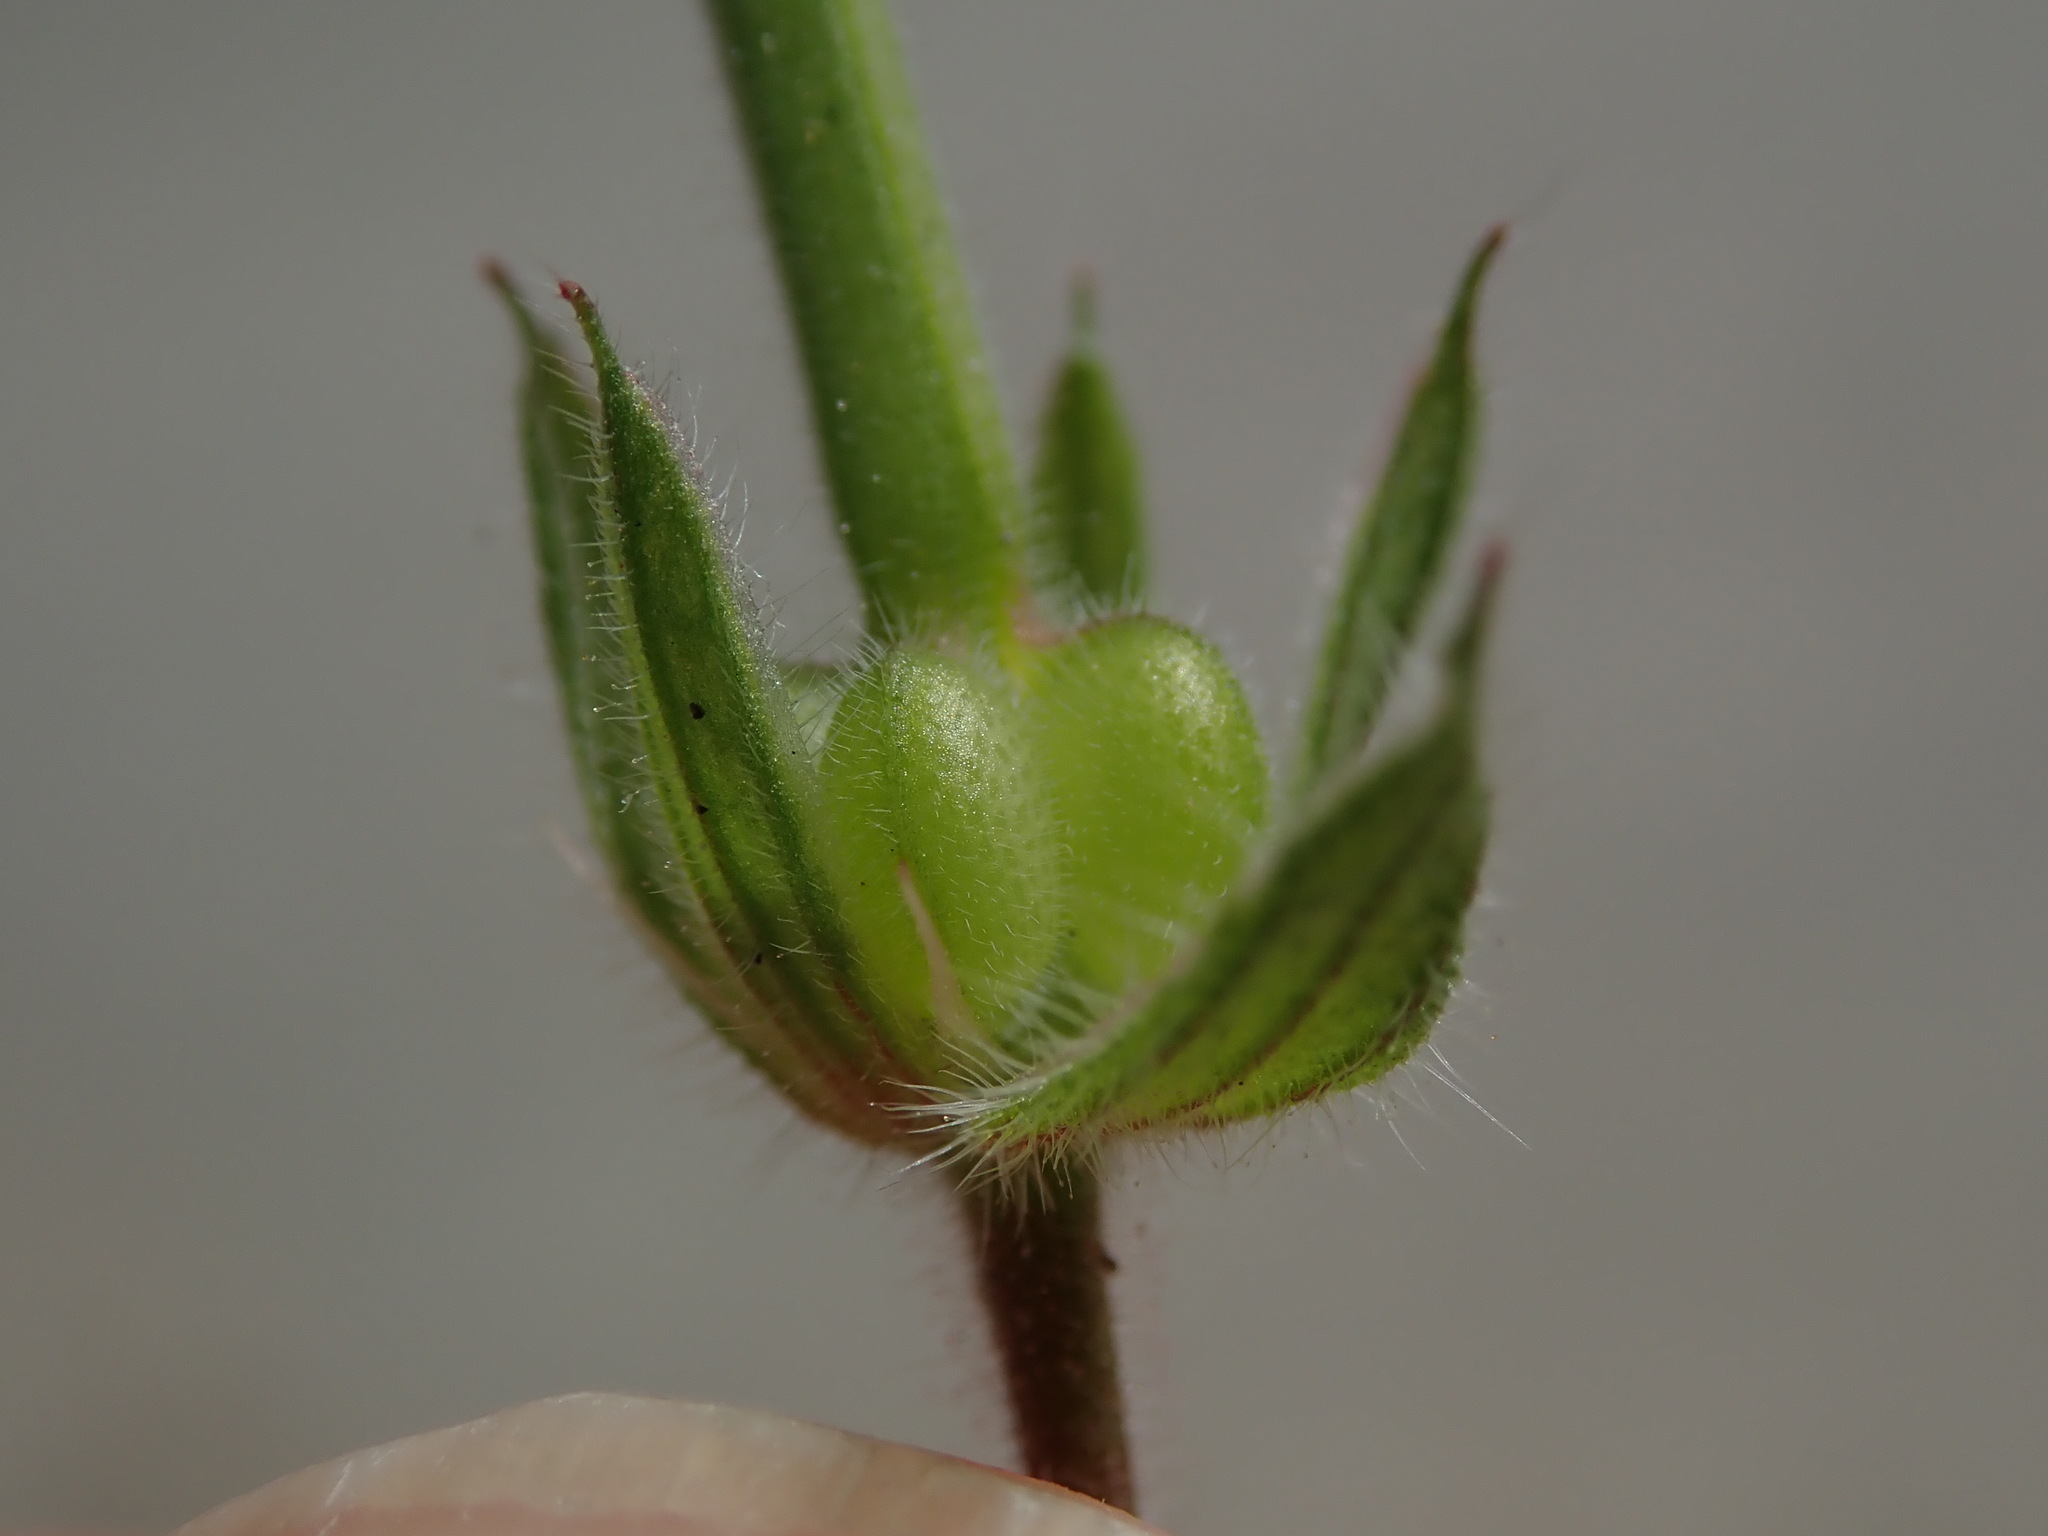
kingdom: Plantae
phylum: Tracheophyta
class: Magnoliopsida
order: Geraniales
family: Geraniaceae
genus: Geranium
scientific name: Geranium rotundifolium
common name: Round-leaved crane's-bill
